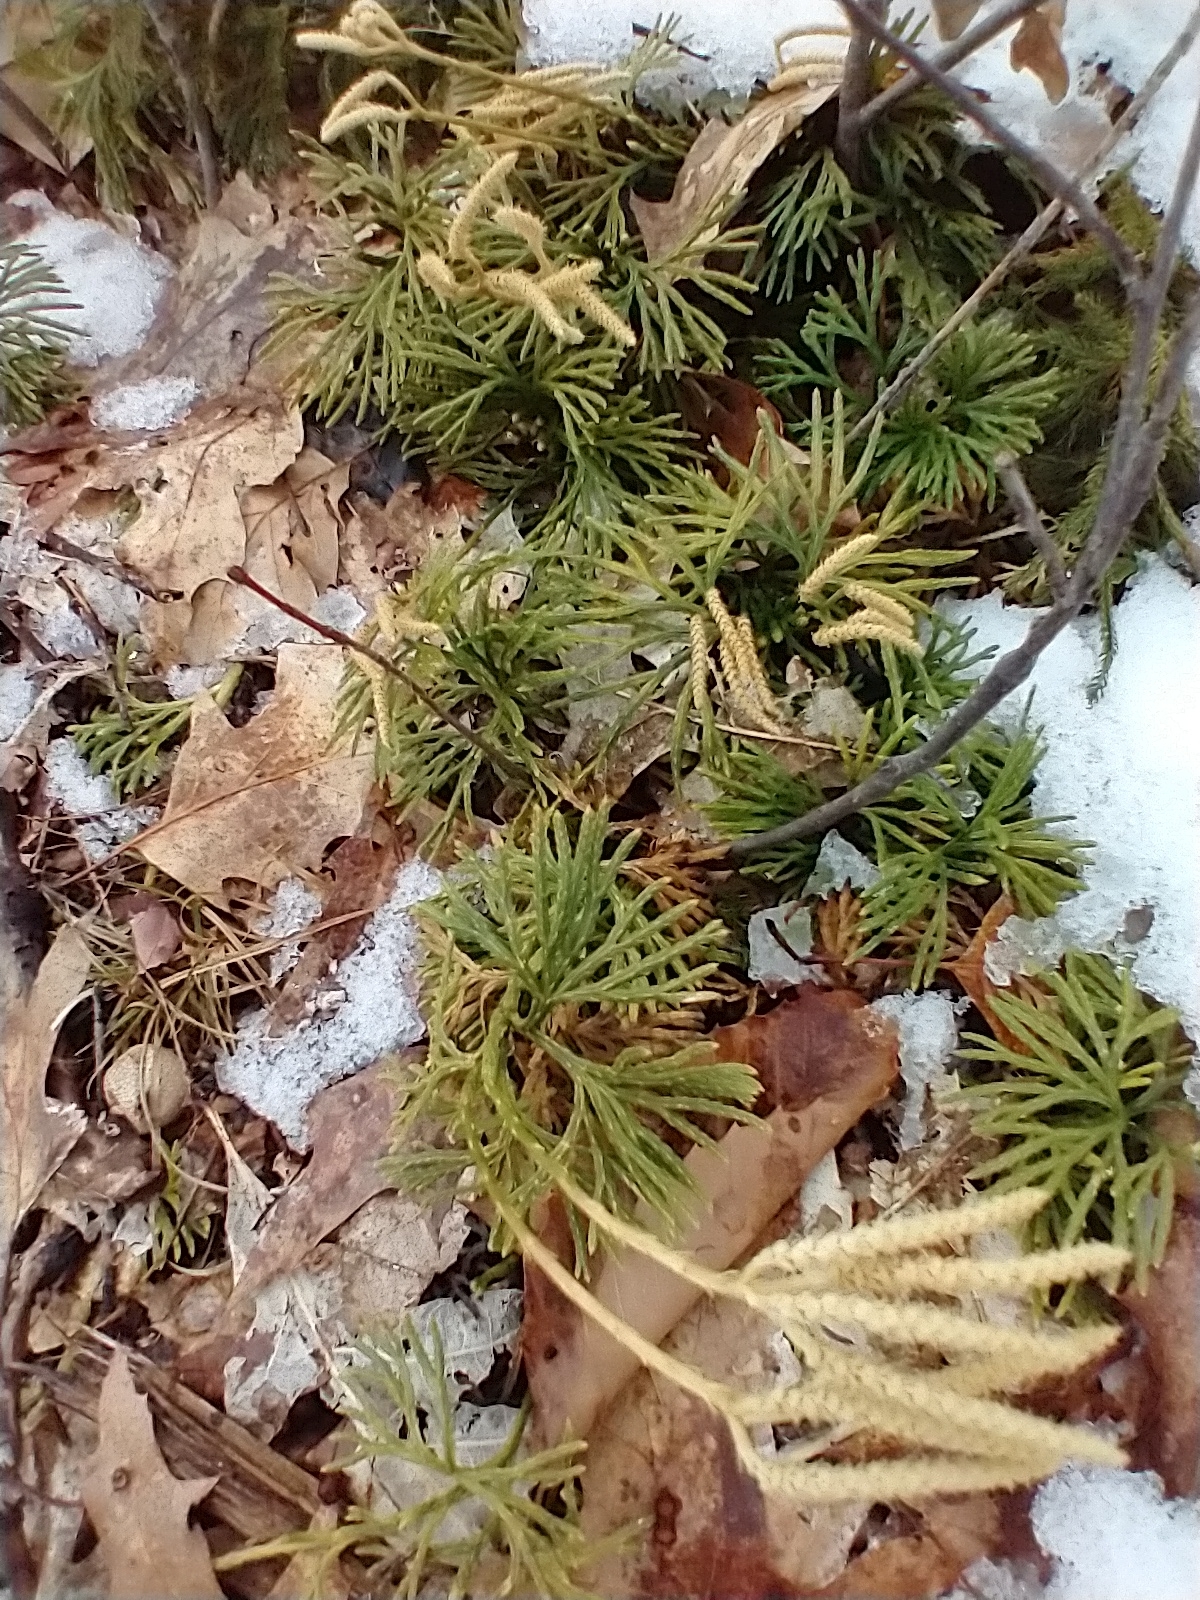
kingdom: Plantae
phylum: Tracheophyta
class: Lycopodiopsida
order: Lycopodiales
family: Lycopodiaceae
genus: Diphasiastrum
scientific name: Diphasiastrum digitatum
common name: Southern running-pine
